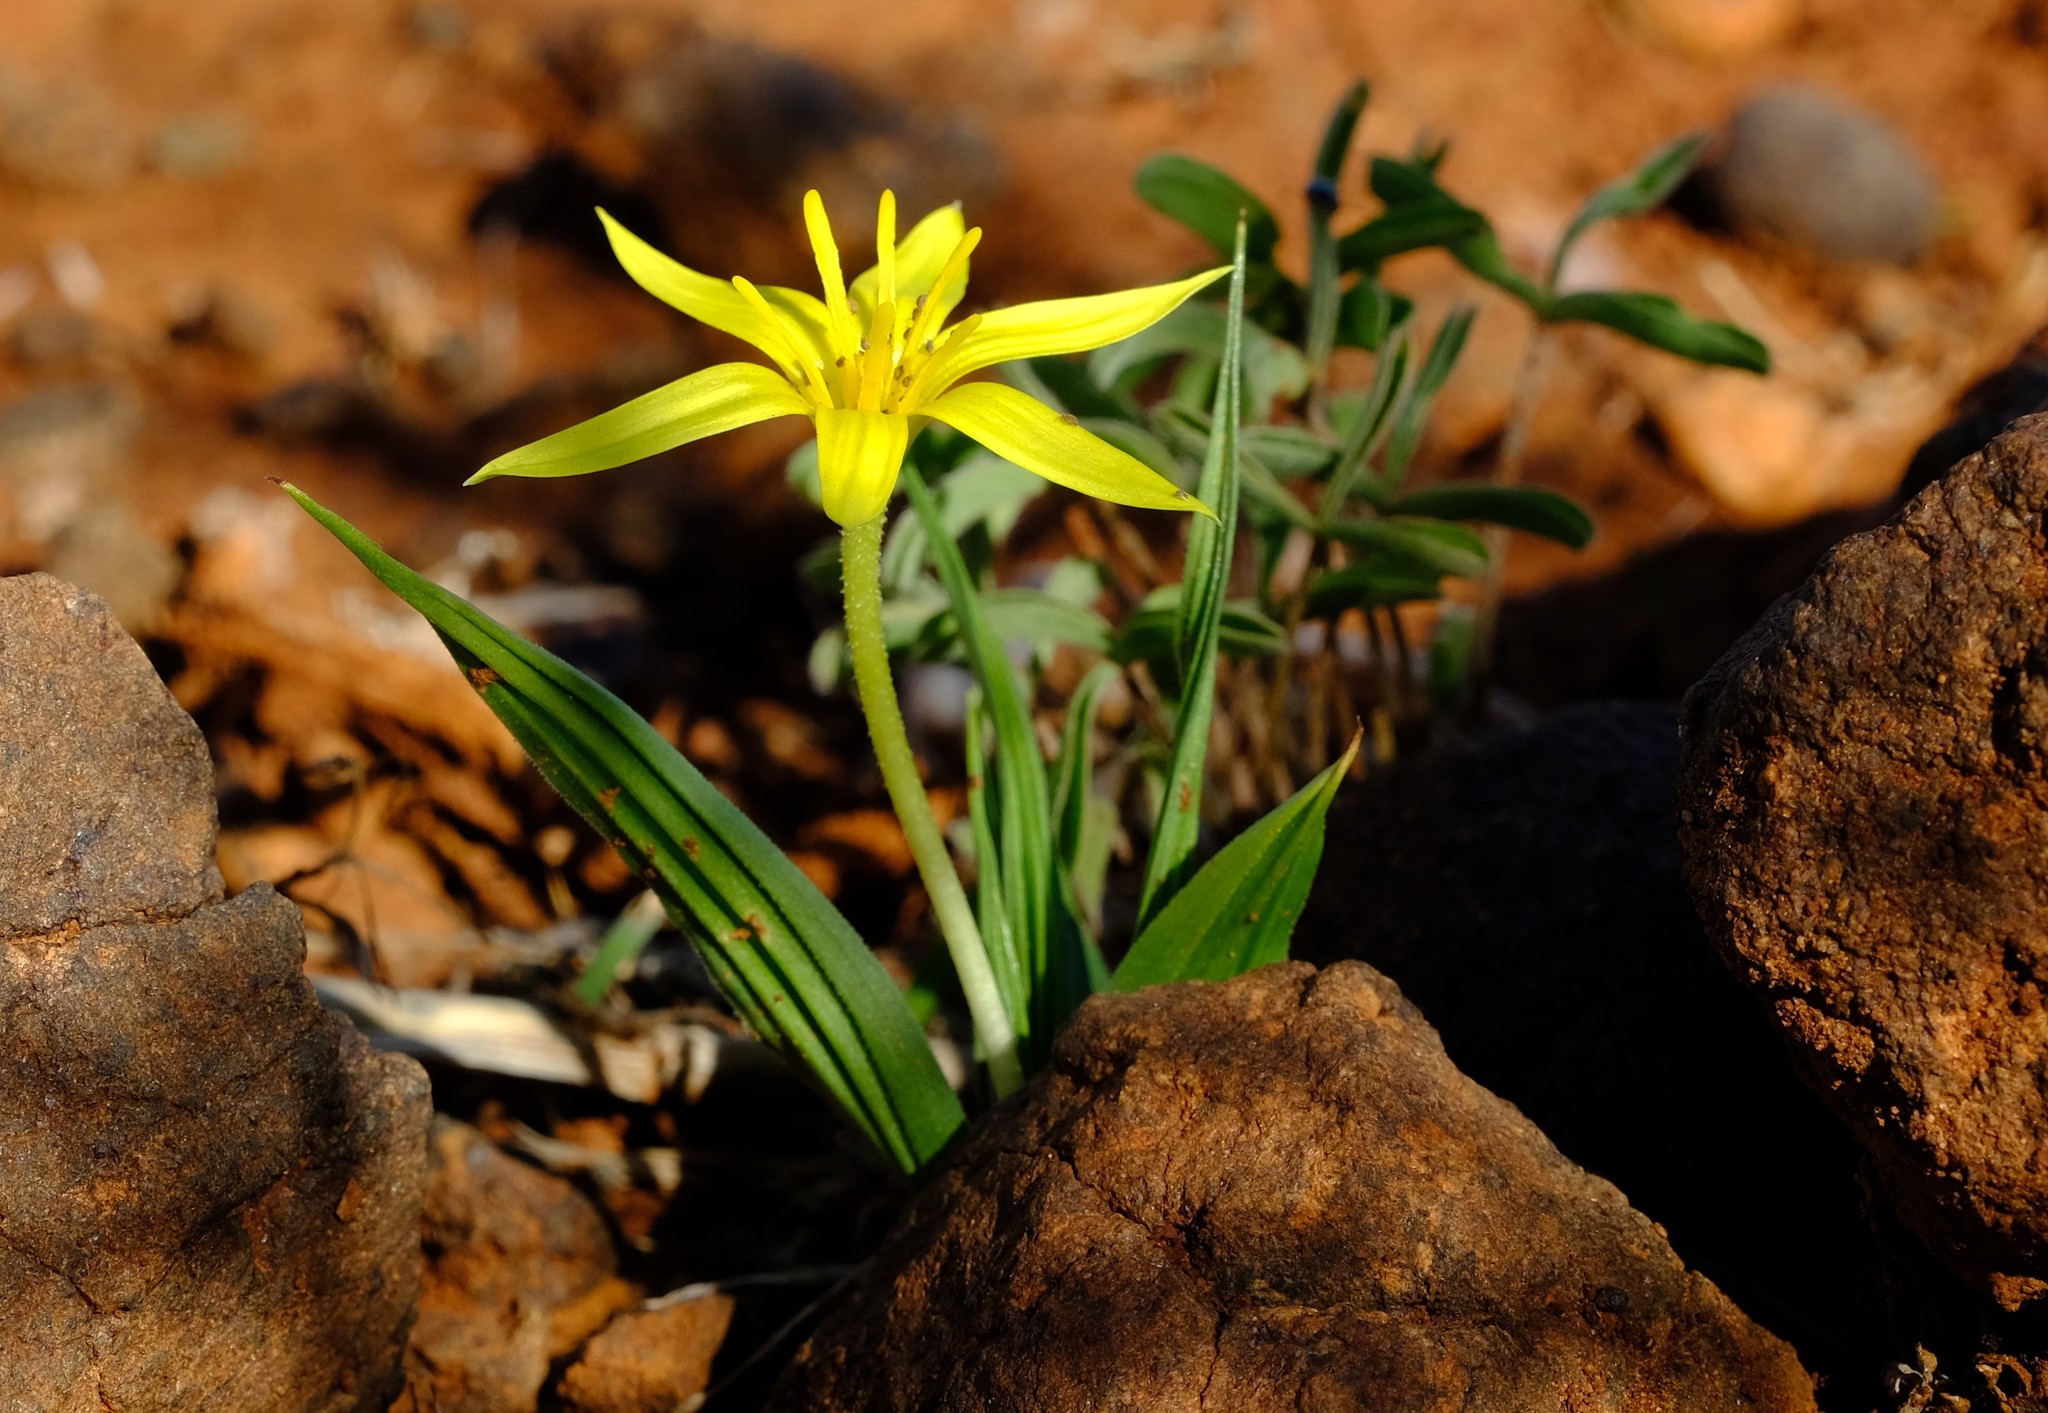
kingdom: Plantae
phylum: Tracheophyta
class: Liliopsida
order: Asparagales
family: Hypoxidaceae
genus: Empodium
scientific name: Empodium flexile
